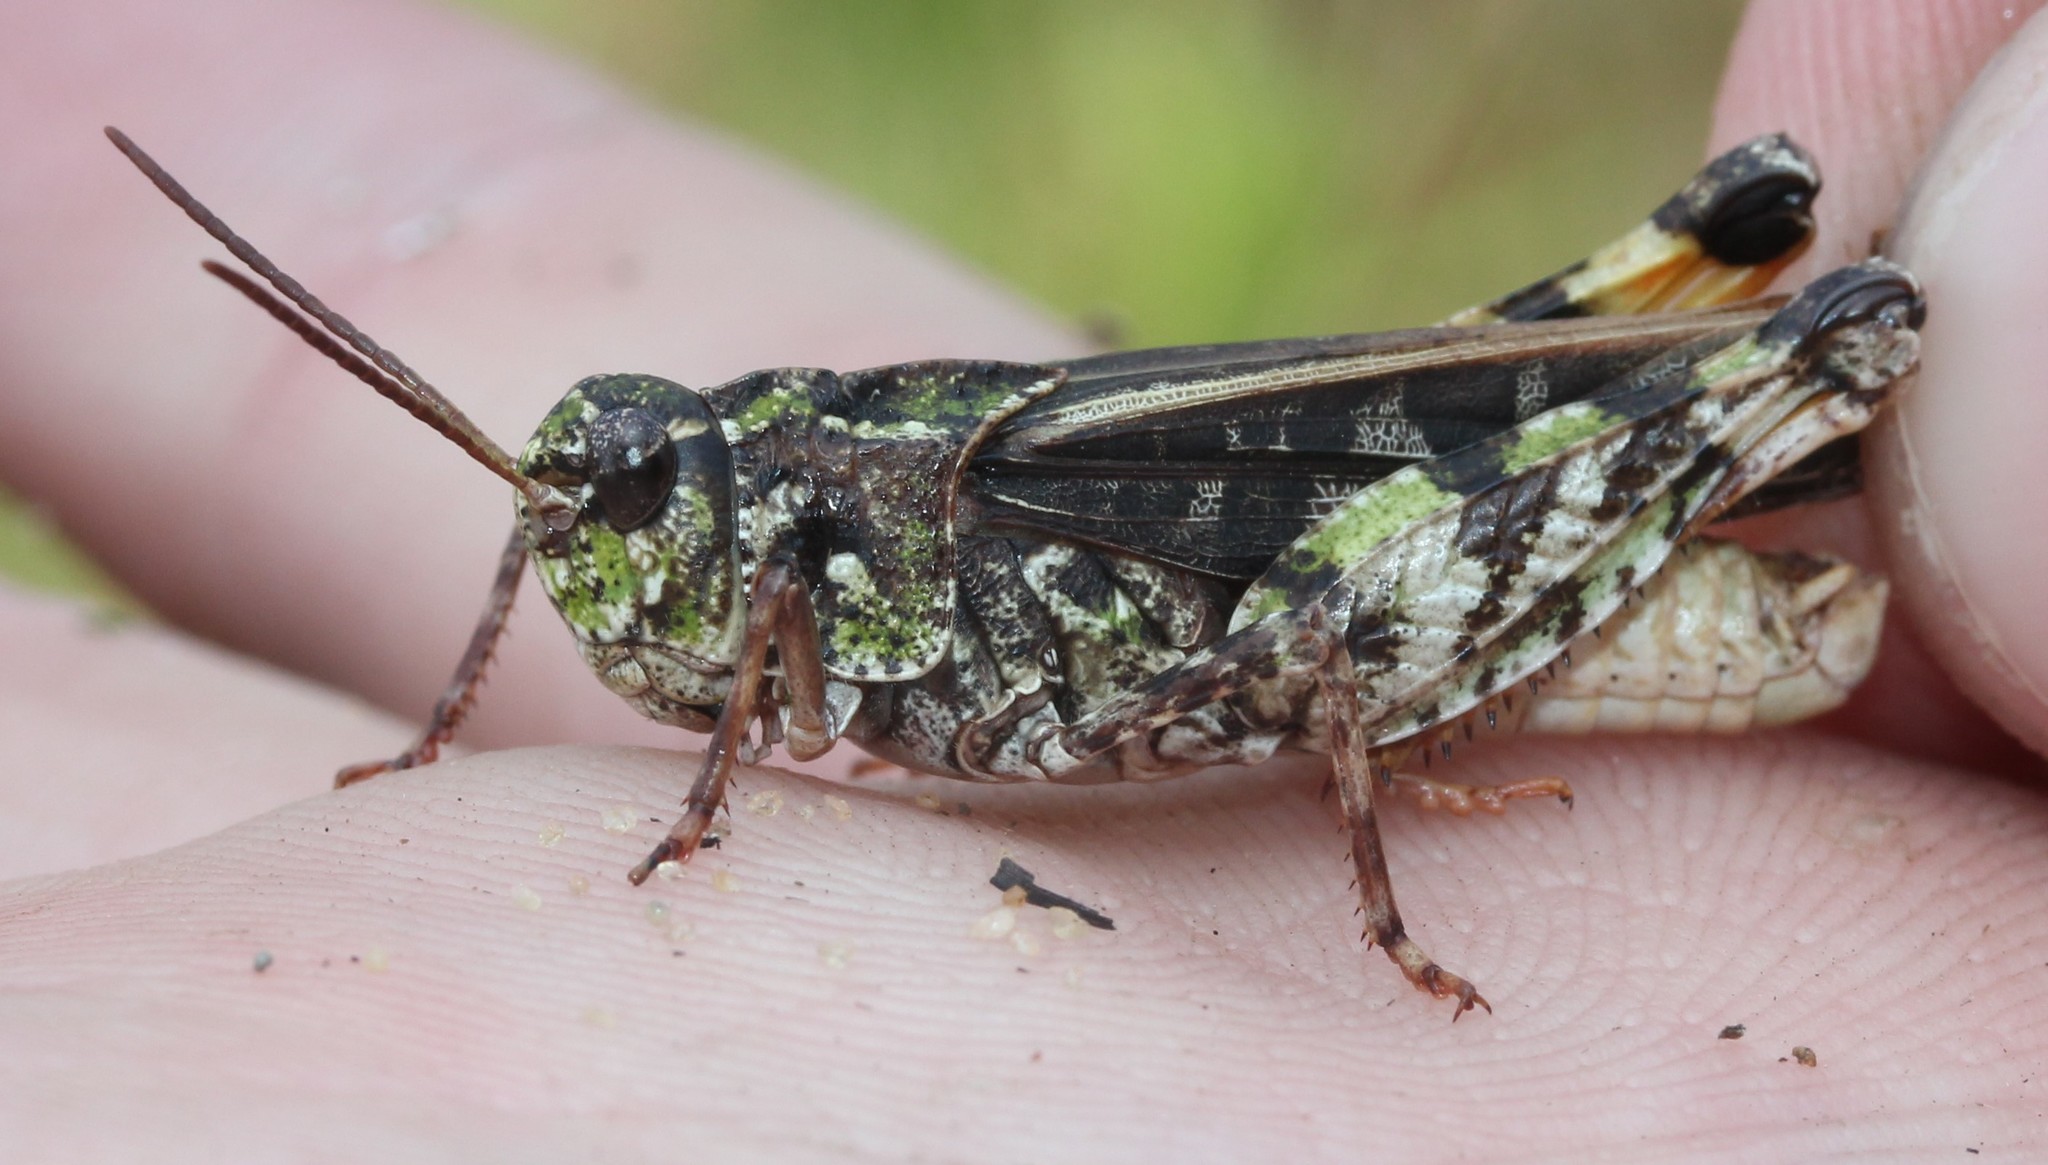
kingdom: Animalia
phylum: Arthropoda
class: Insecta
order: Orthoptera
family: Acrididae
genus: Pardalophora
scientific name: Pardalophora phoenicoptera
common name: Orange-winged grasshopper
